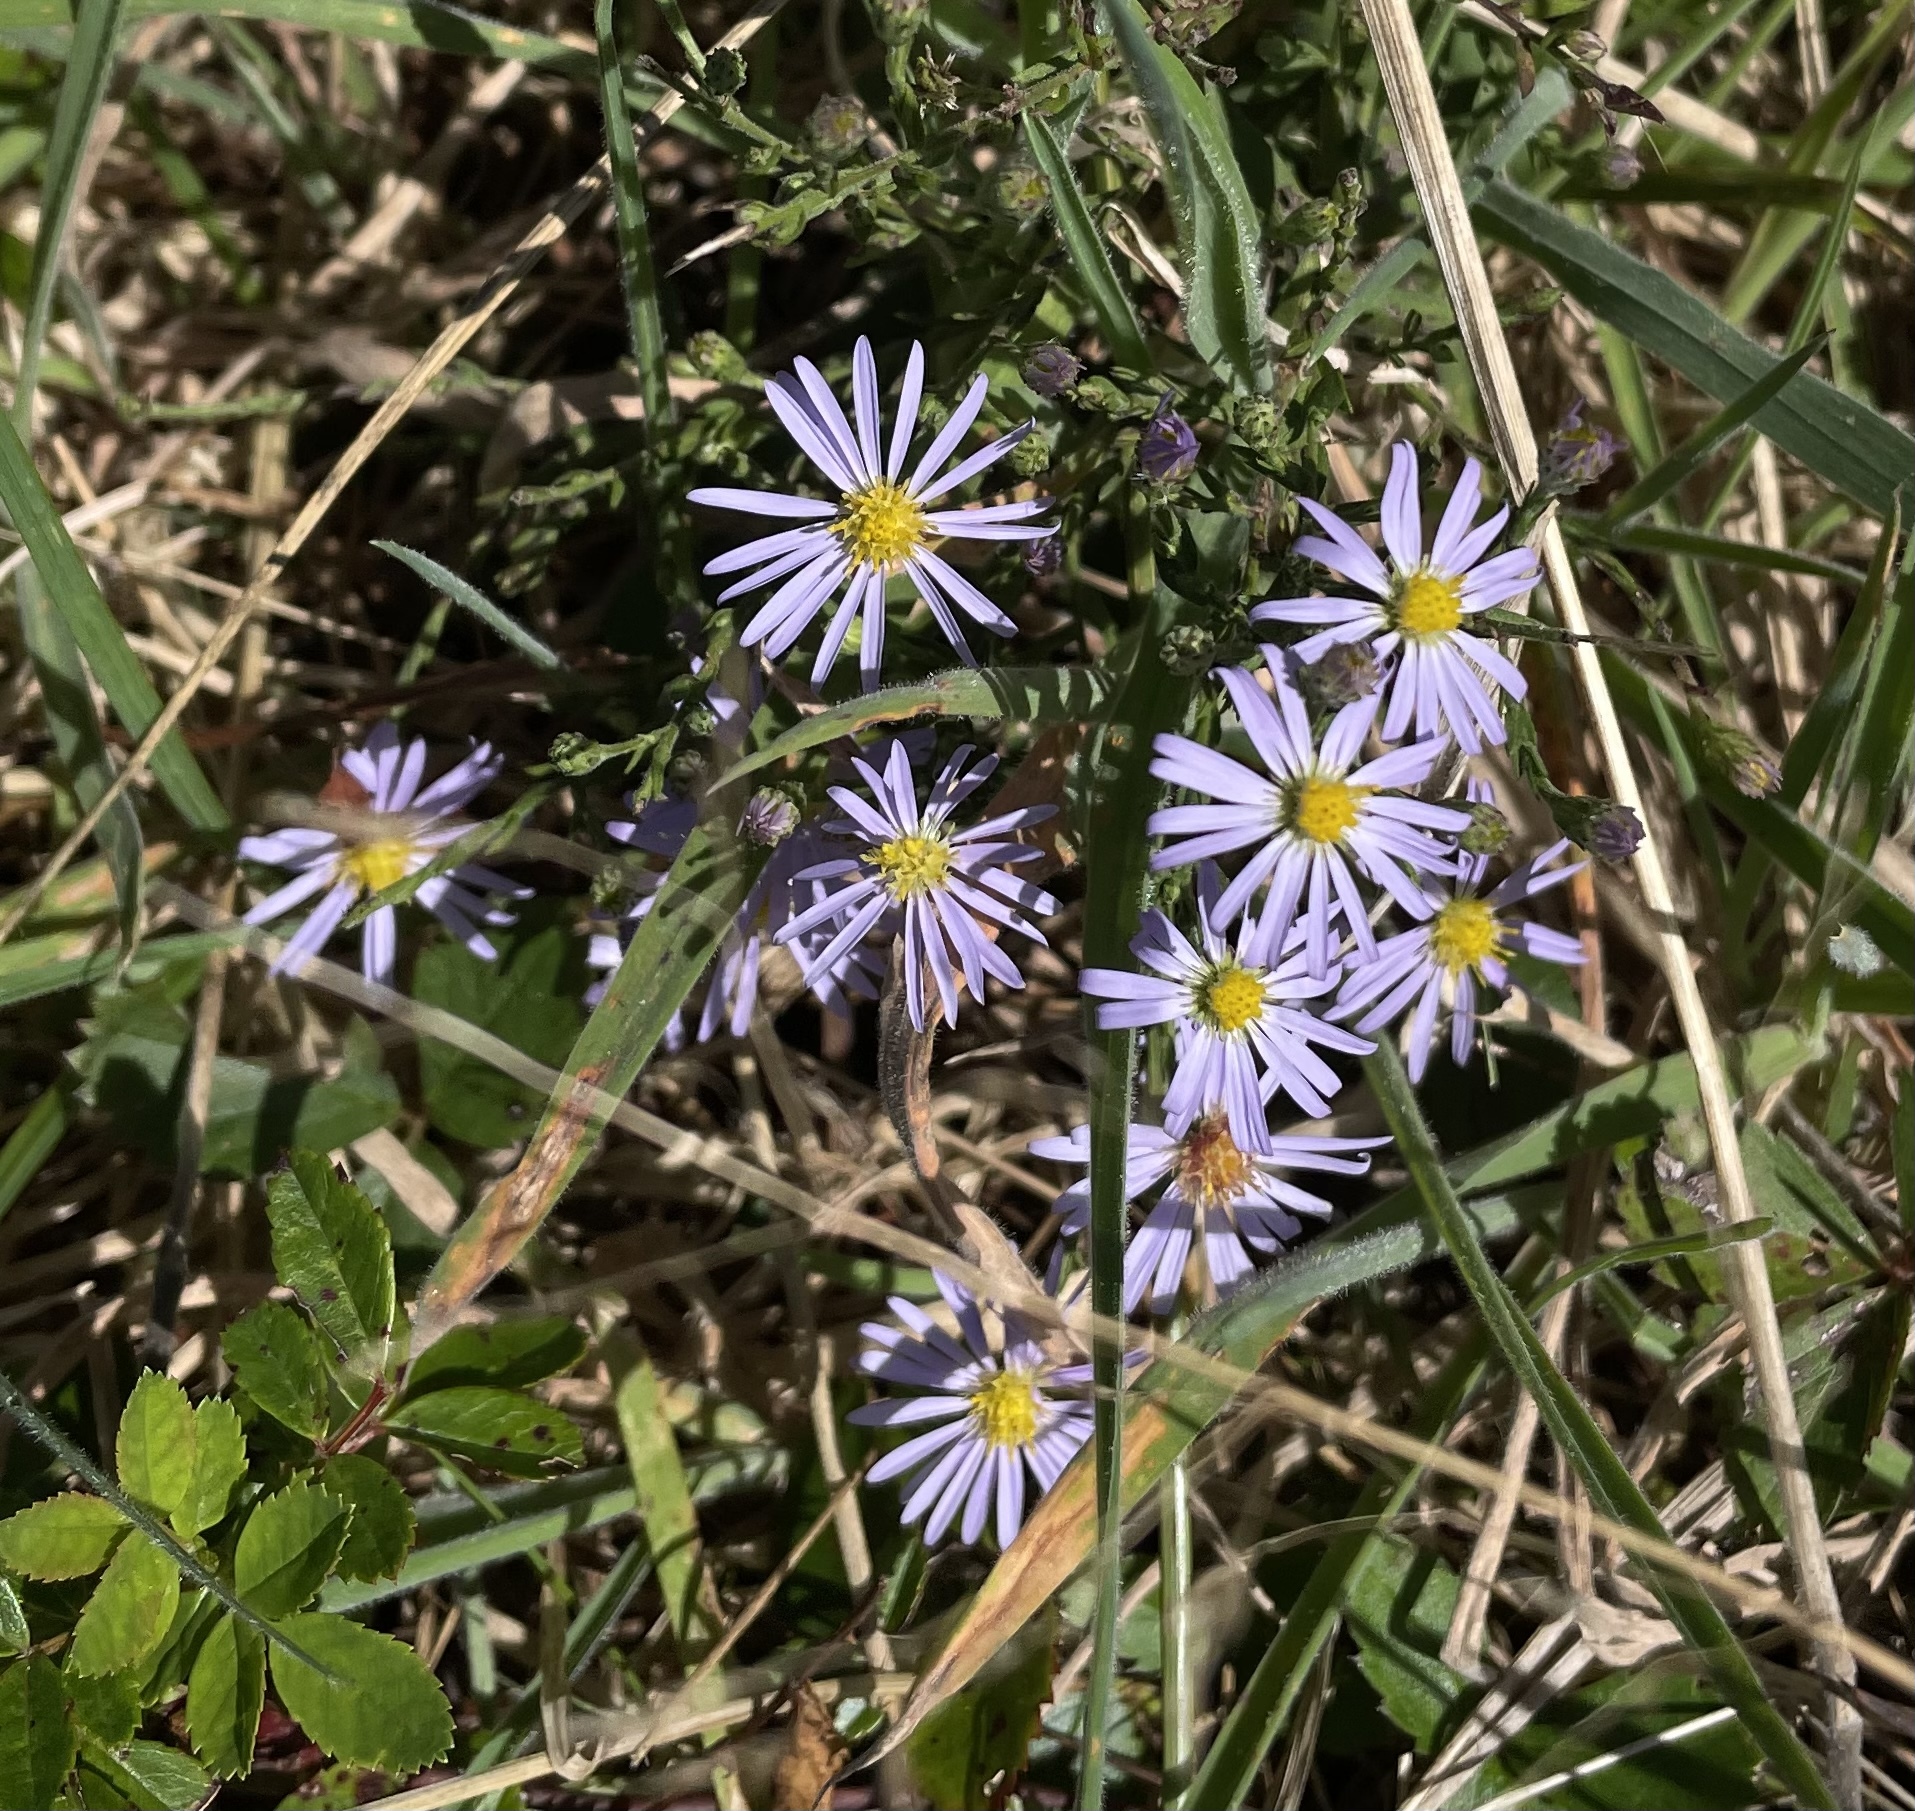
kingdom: Plantae
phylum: Tracheophyta
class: Magnoliopsida
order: Asterales
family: Asteraceae
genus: Symphyotrichum
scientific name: Symphyotrichum undulatum
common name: Clasping heart-leaf aster
